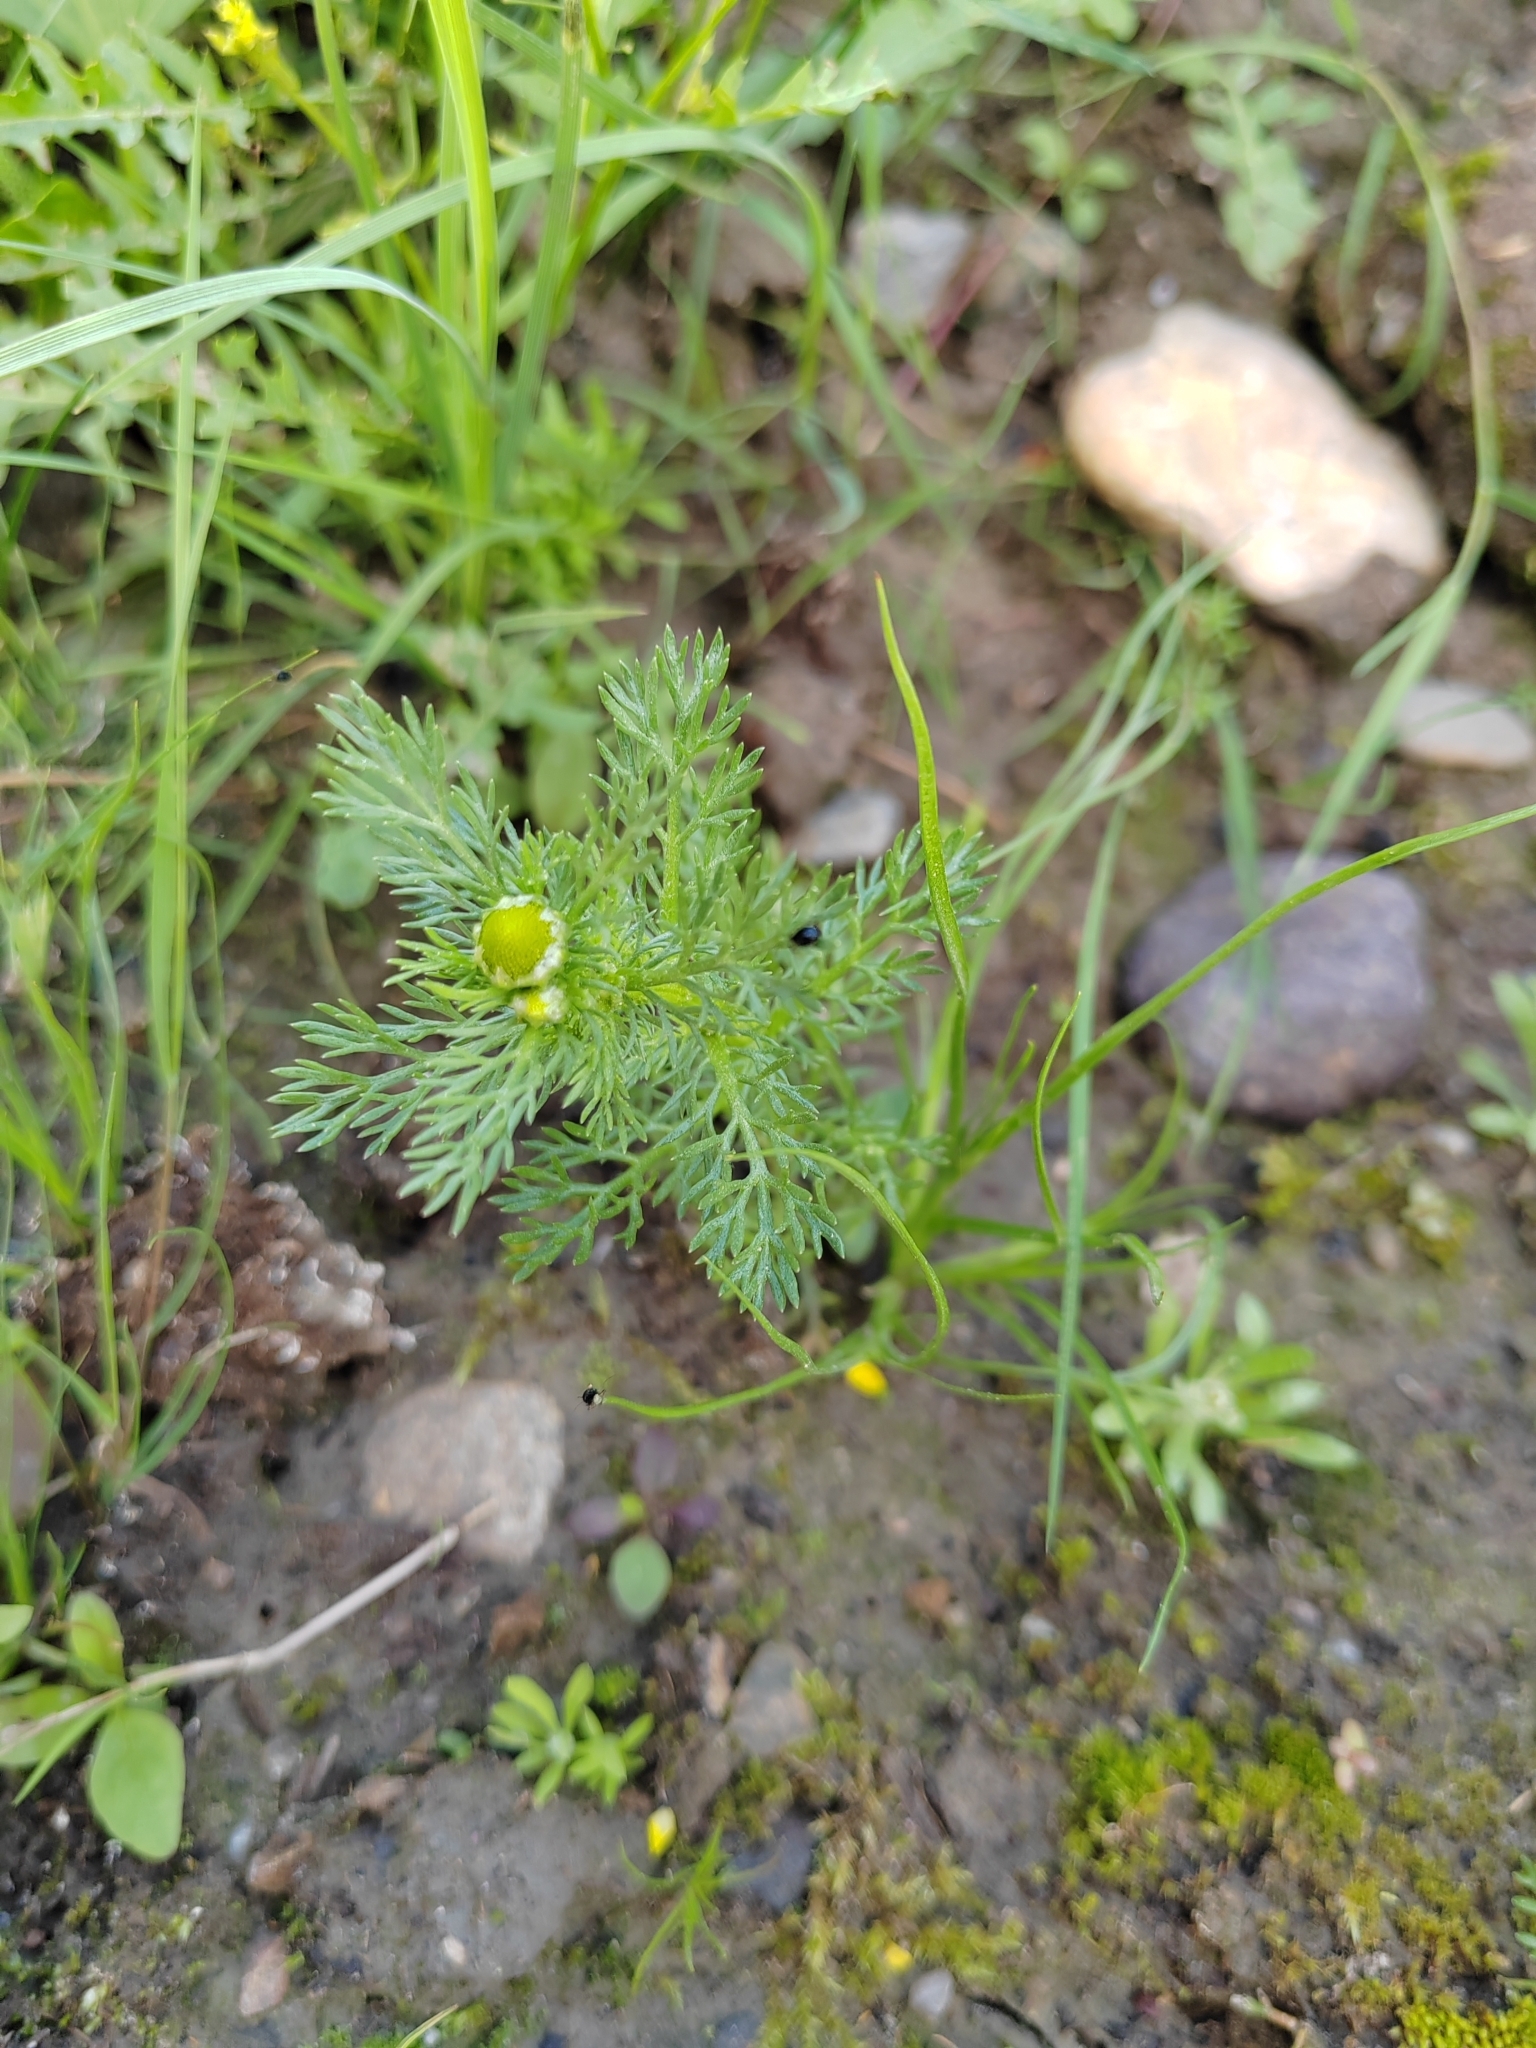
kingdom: Plantae
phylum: Tracheophyta
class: Magnoliopsida
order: Asterales
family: Asteraceae
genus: Matricaria
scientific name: Matricaria discoidea
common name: Disc mayweed
